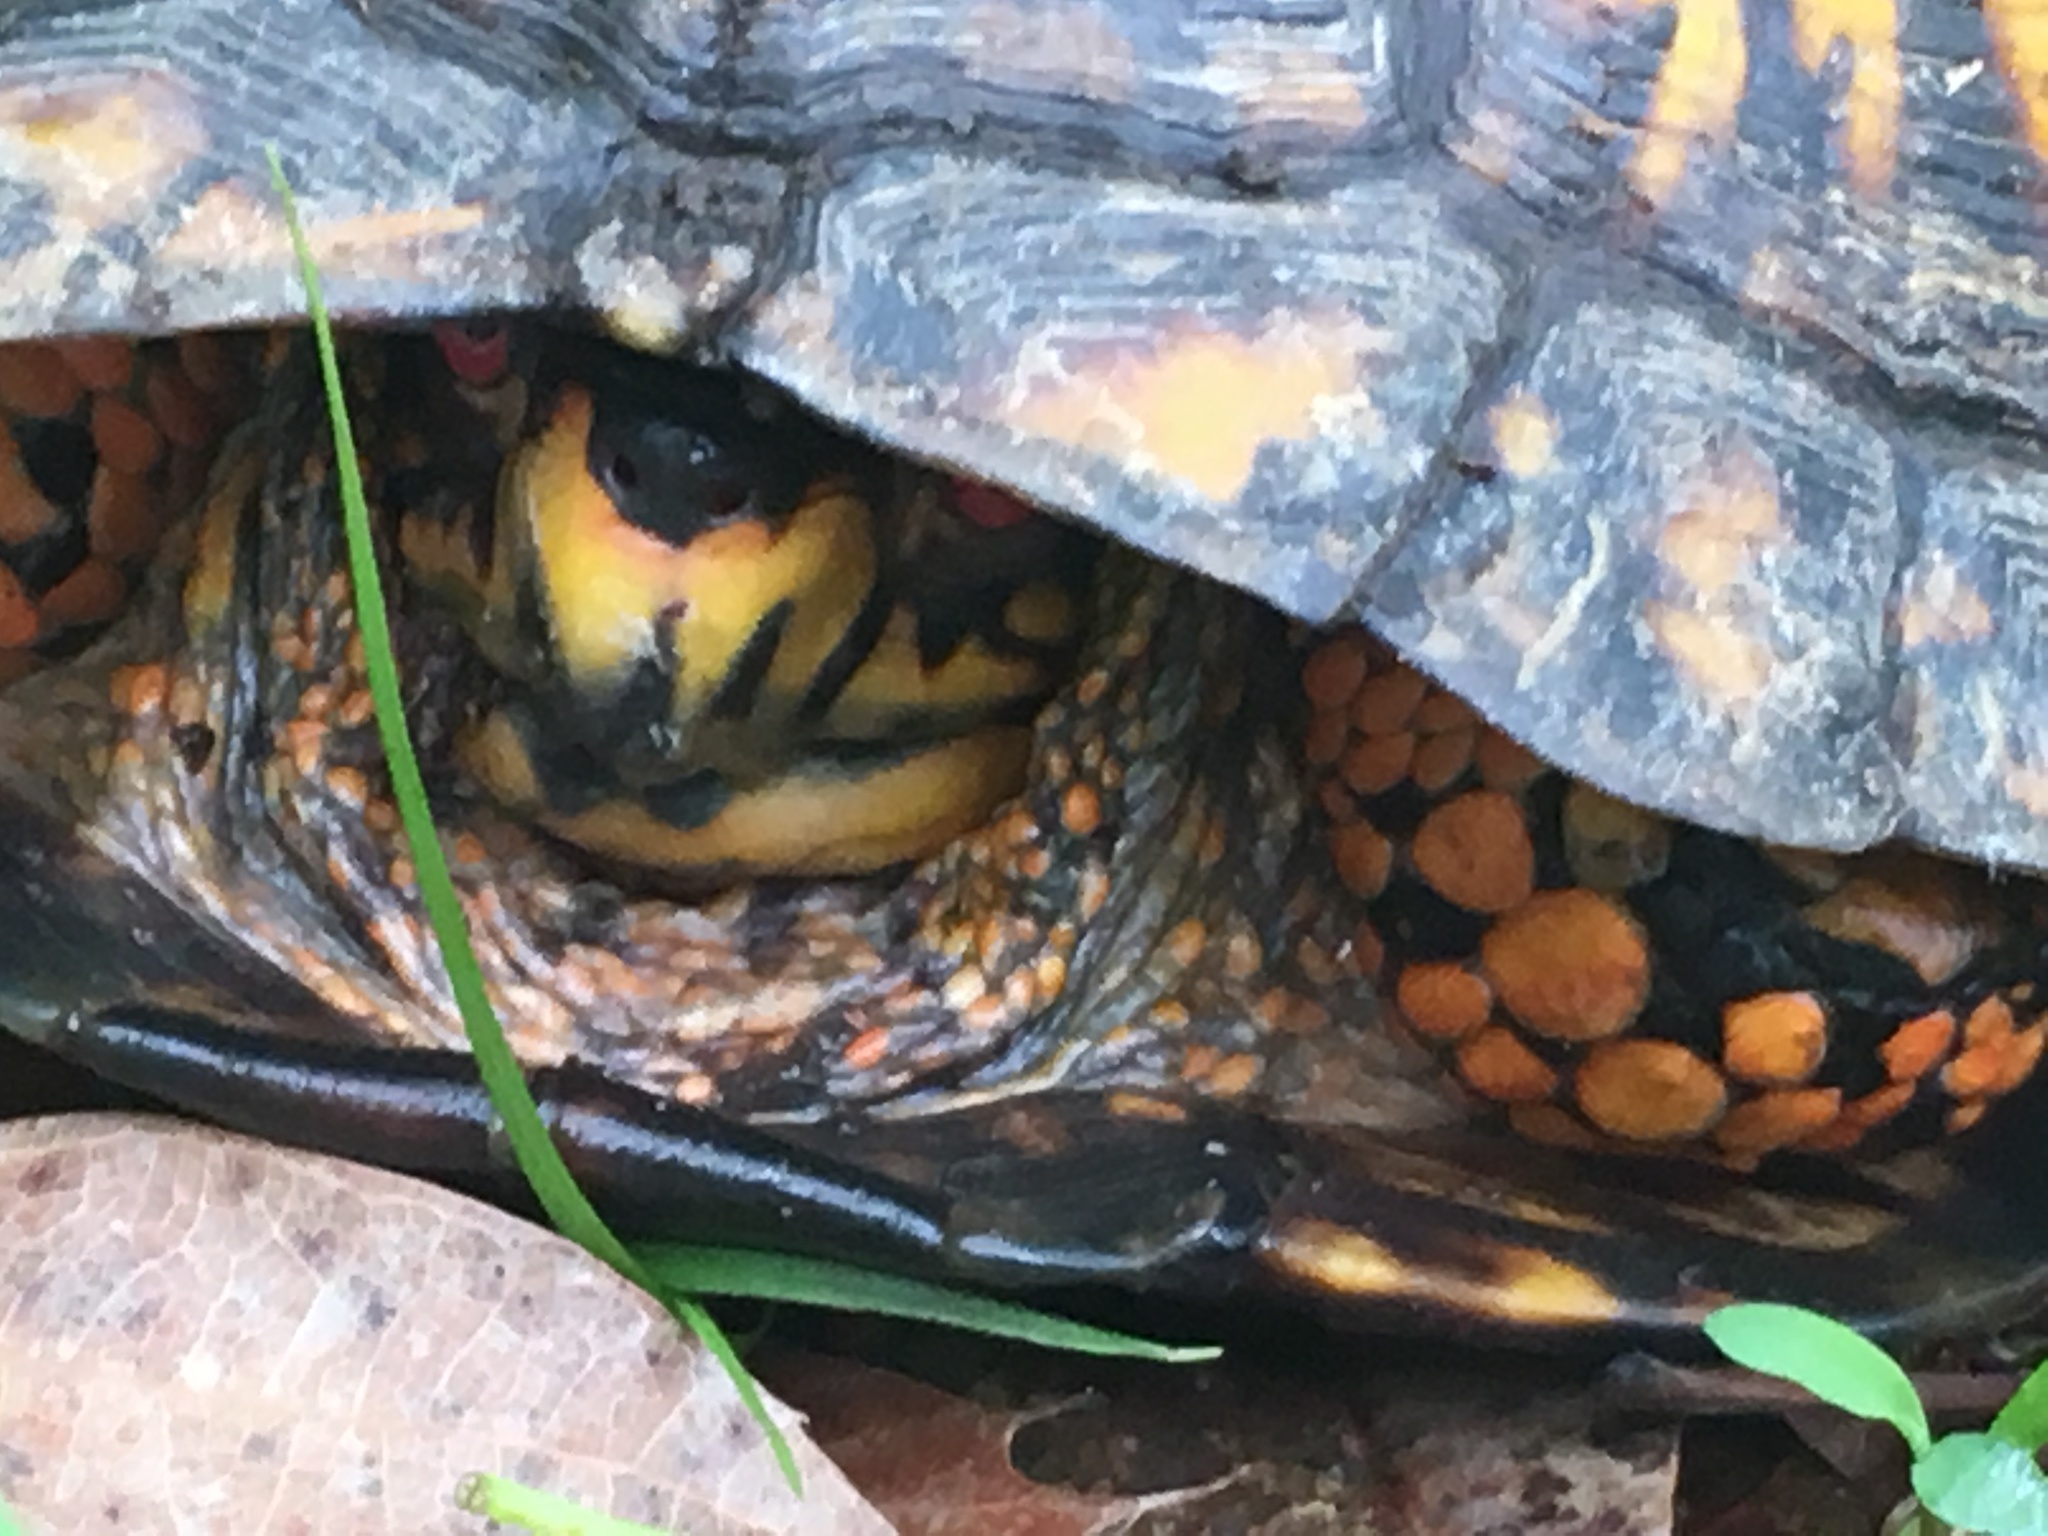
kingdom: Animalia
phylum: Chordata
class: Testudines
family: Emydidae
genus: Terrapene
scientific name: Terrapene carolina
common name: Common box turtle
